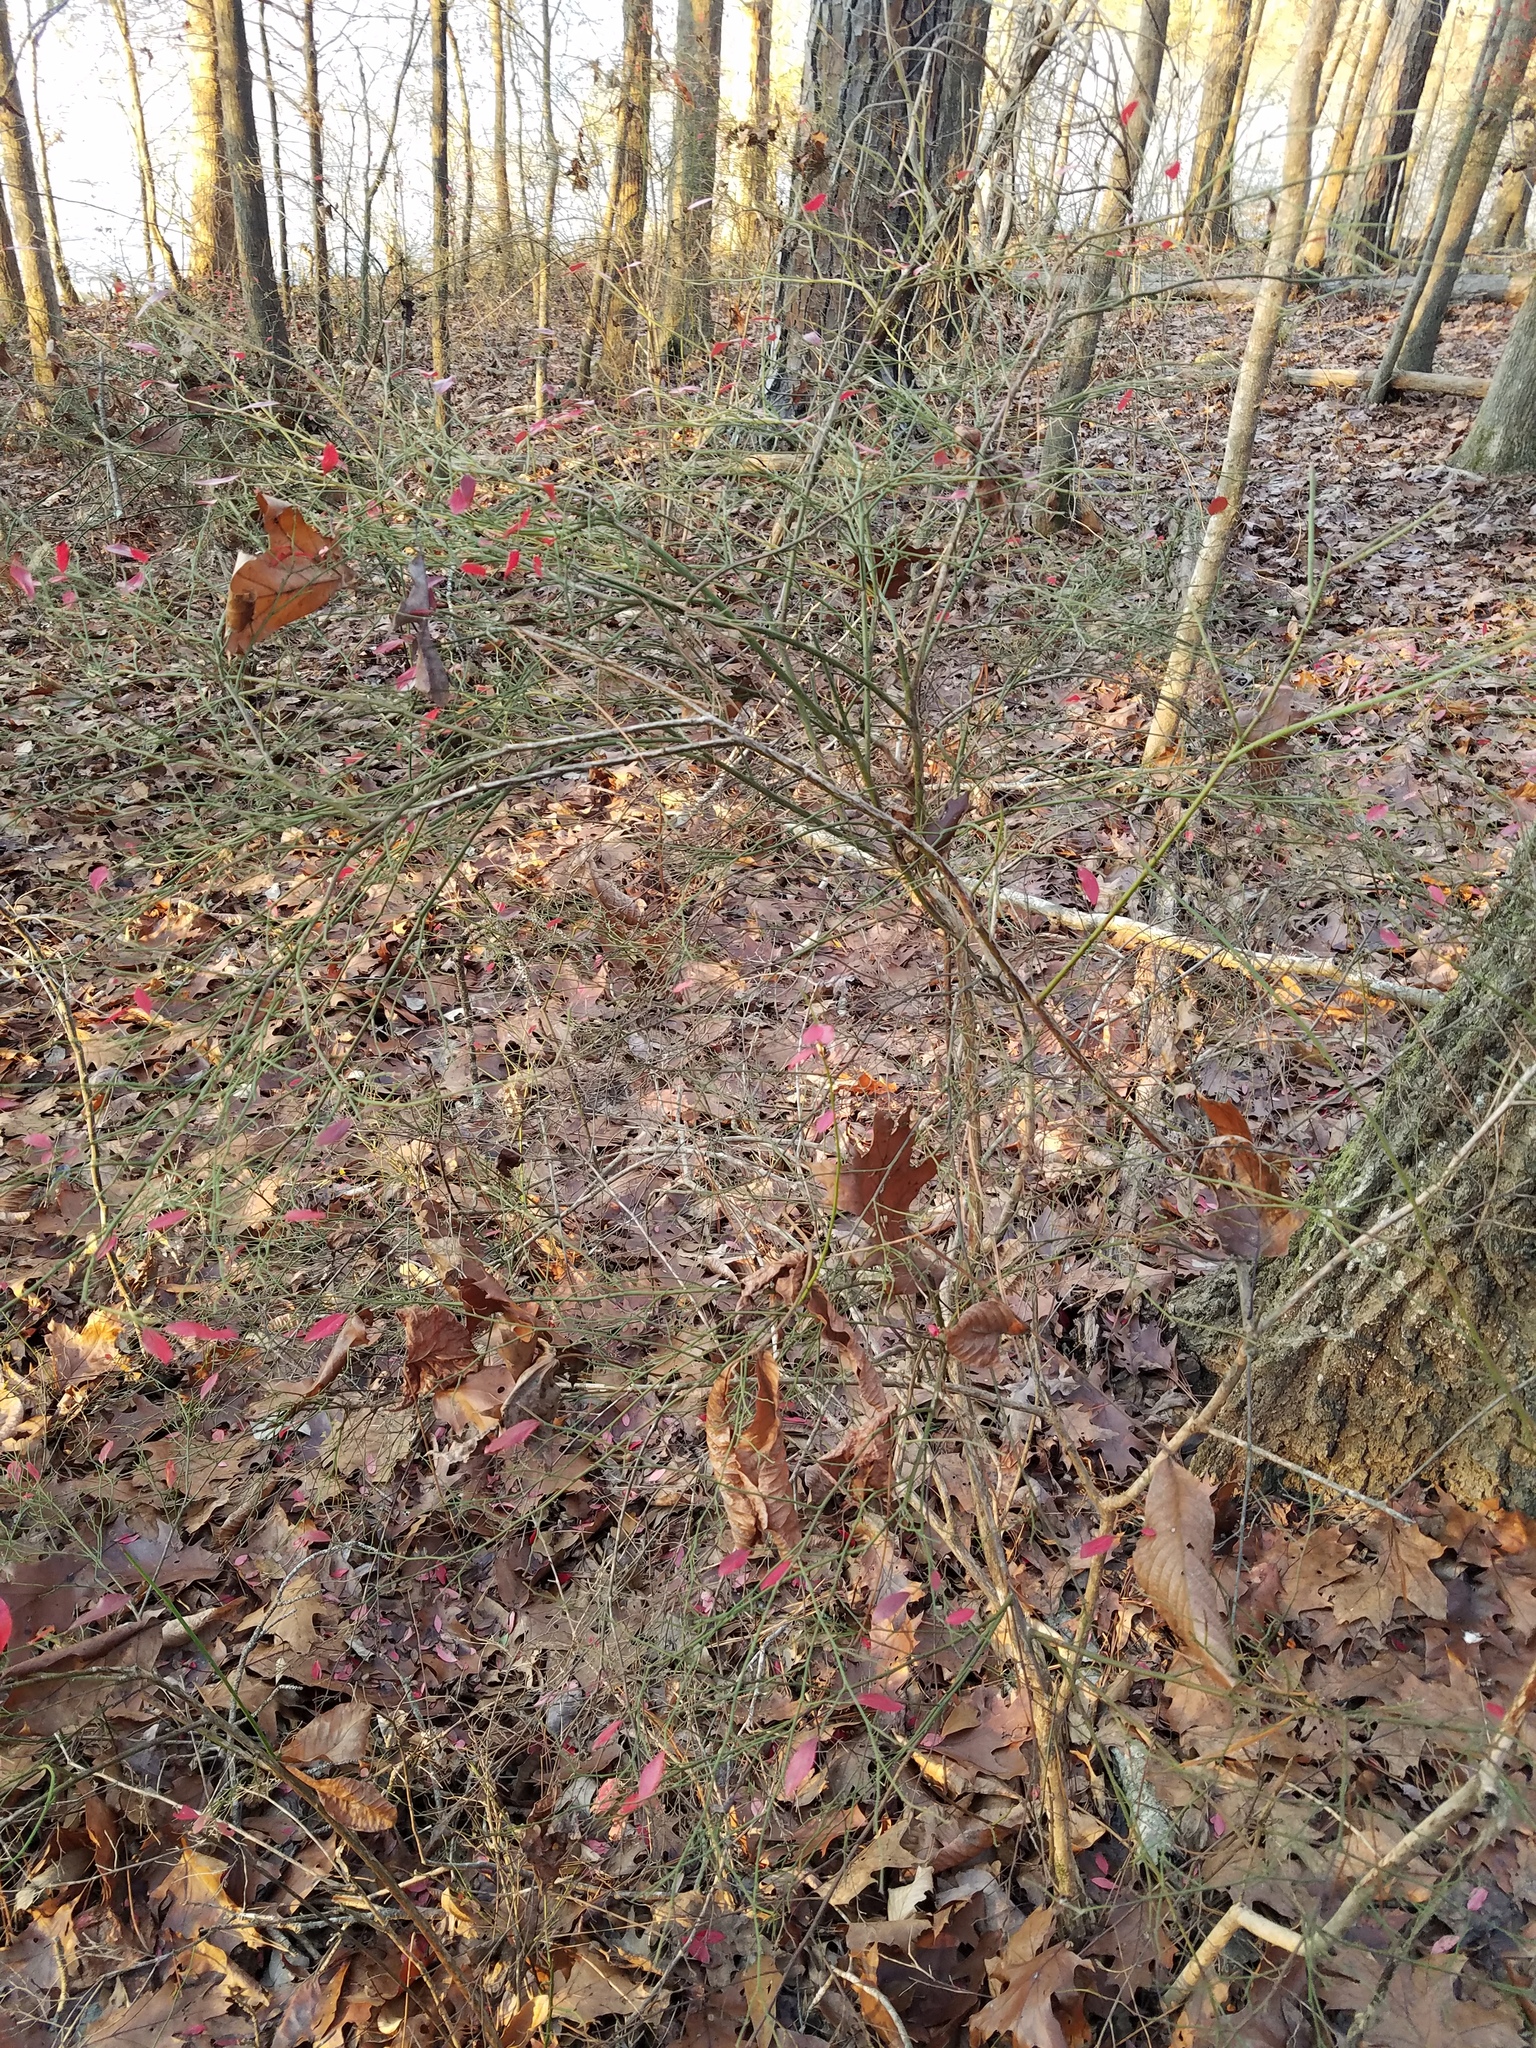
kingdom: Plantae
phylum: Tracheophyta
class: Magnoliopsida
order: Ericales
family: Ericaceae
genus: Vaccinium
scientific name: Vaccinium corymbosum
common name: Blueberry
